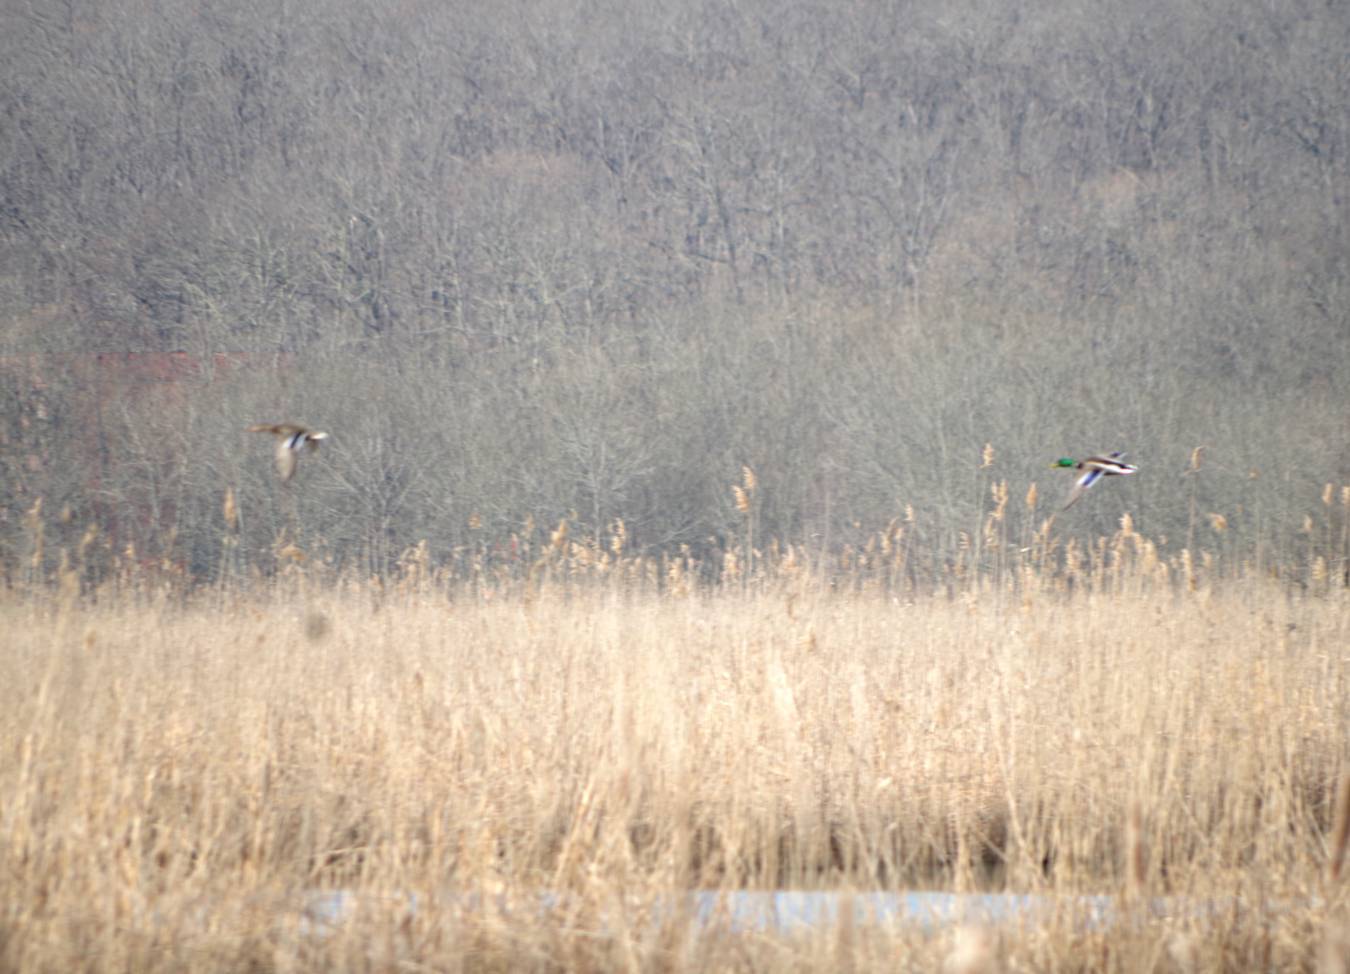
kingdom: Animalia
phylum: Chordata
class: Aves
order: Anseriformes
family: Anatidae
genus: Anas
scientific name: Anas platyrhynchos
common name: Mallard
